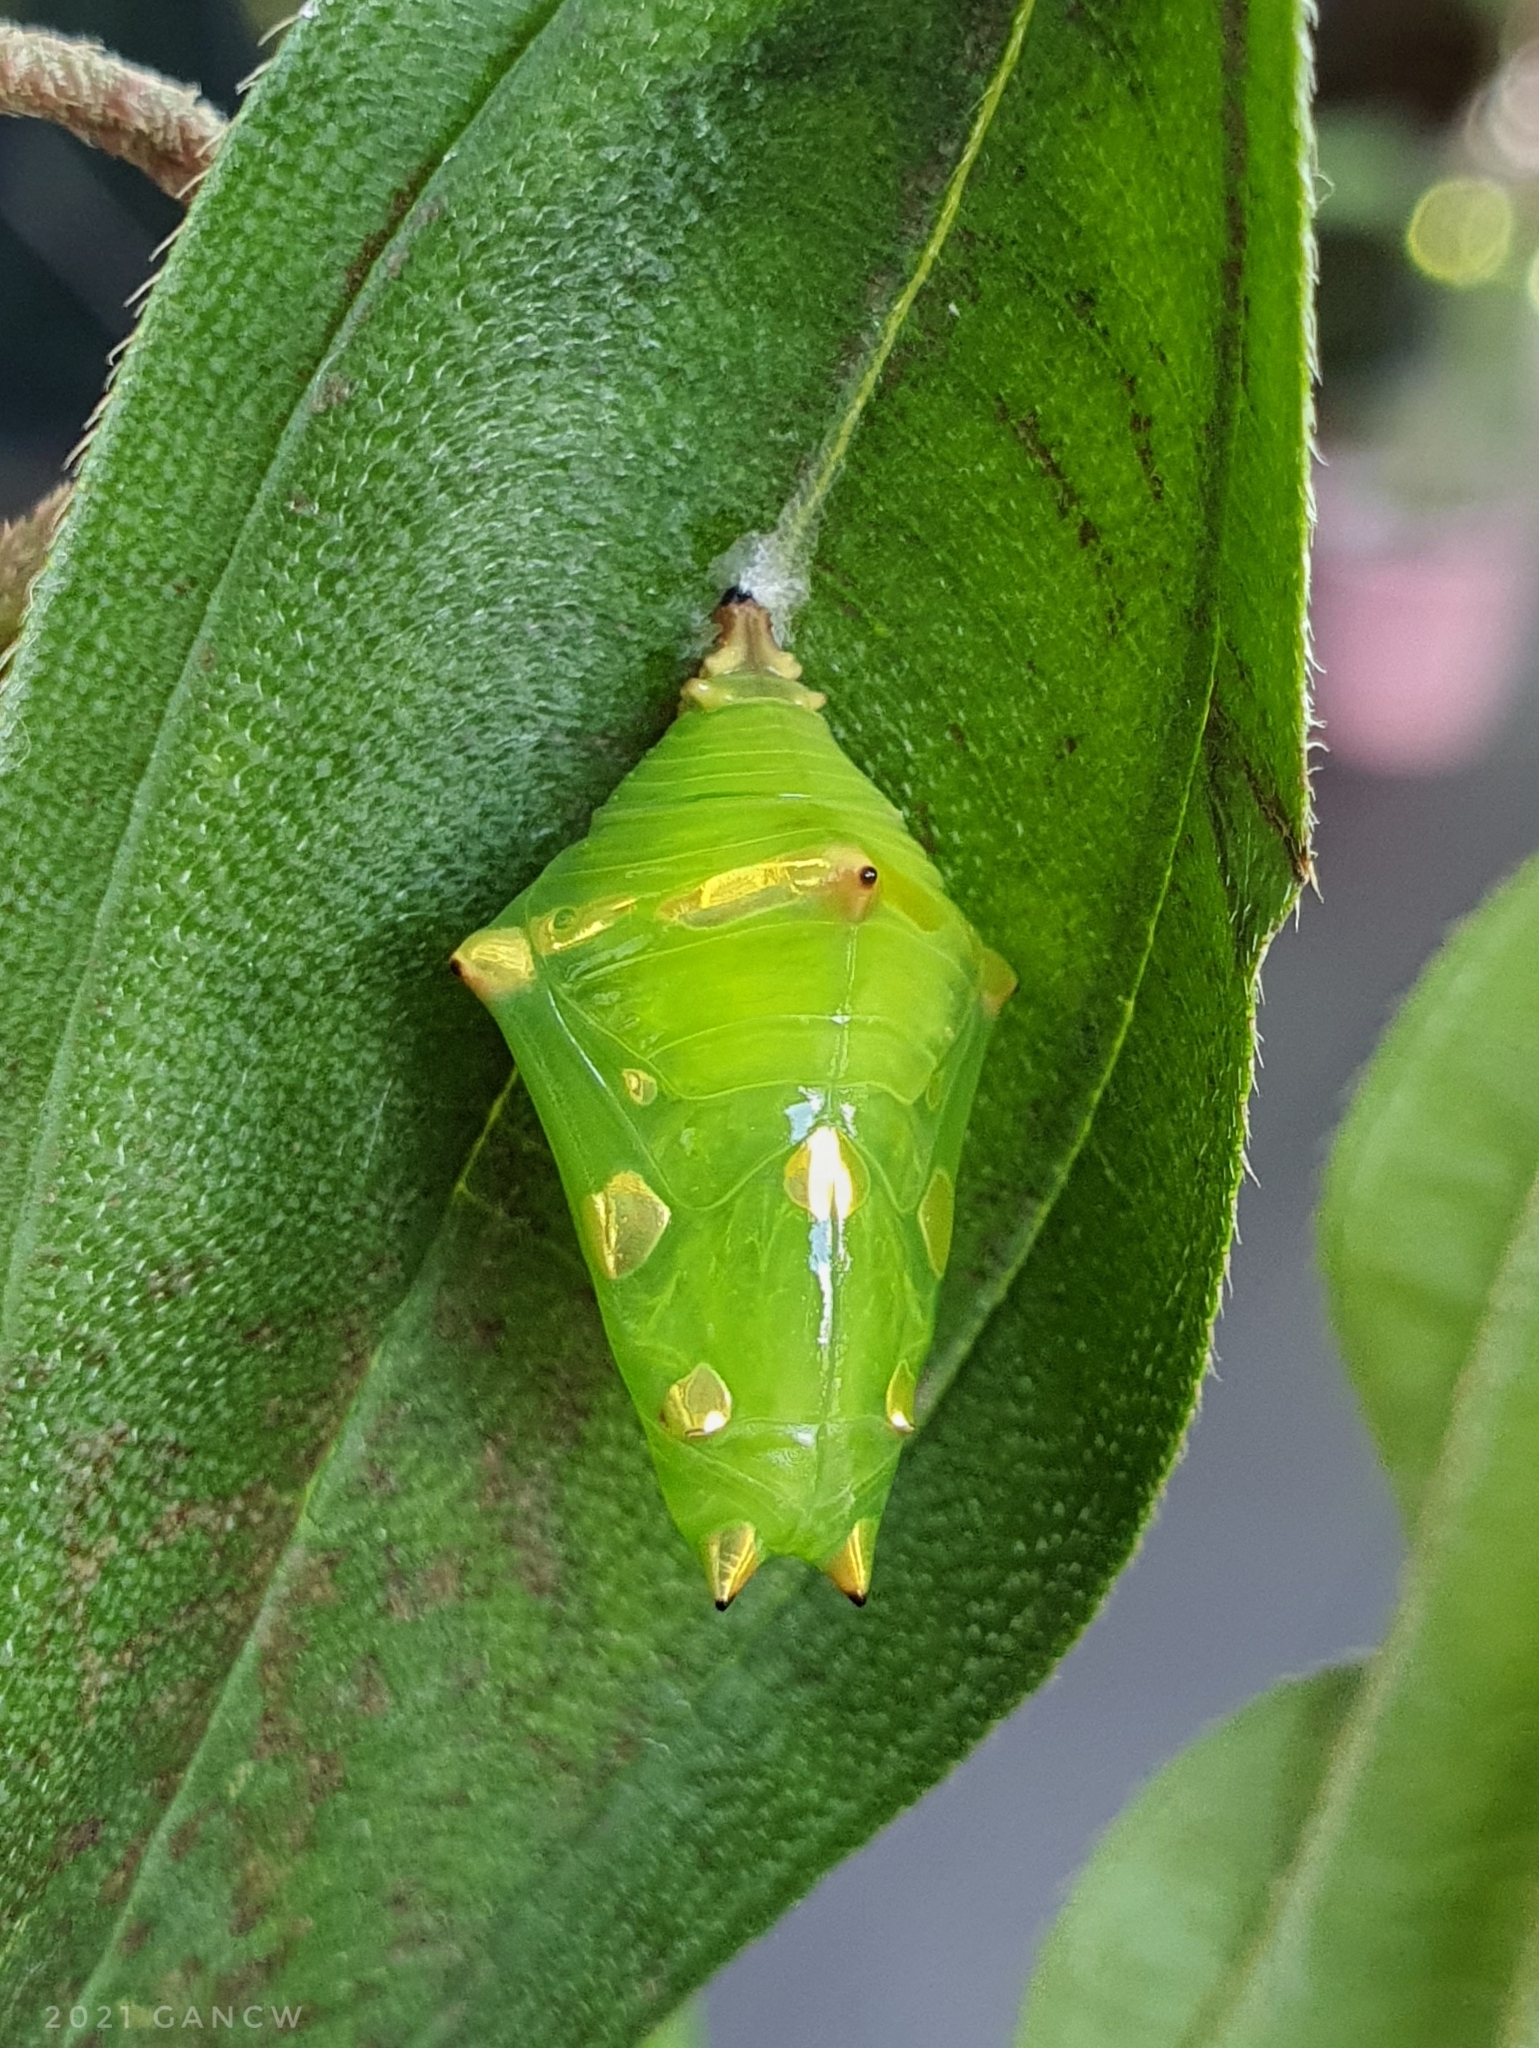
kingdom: Animalia
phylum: Arthropoda
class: Insecta
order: Lepidoptera
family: Nymphalidae
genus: Tanaecia
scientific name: Tanaecia iapis
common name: Horsfield's baron
